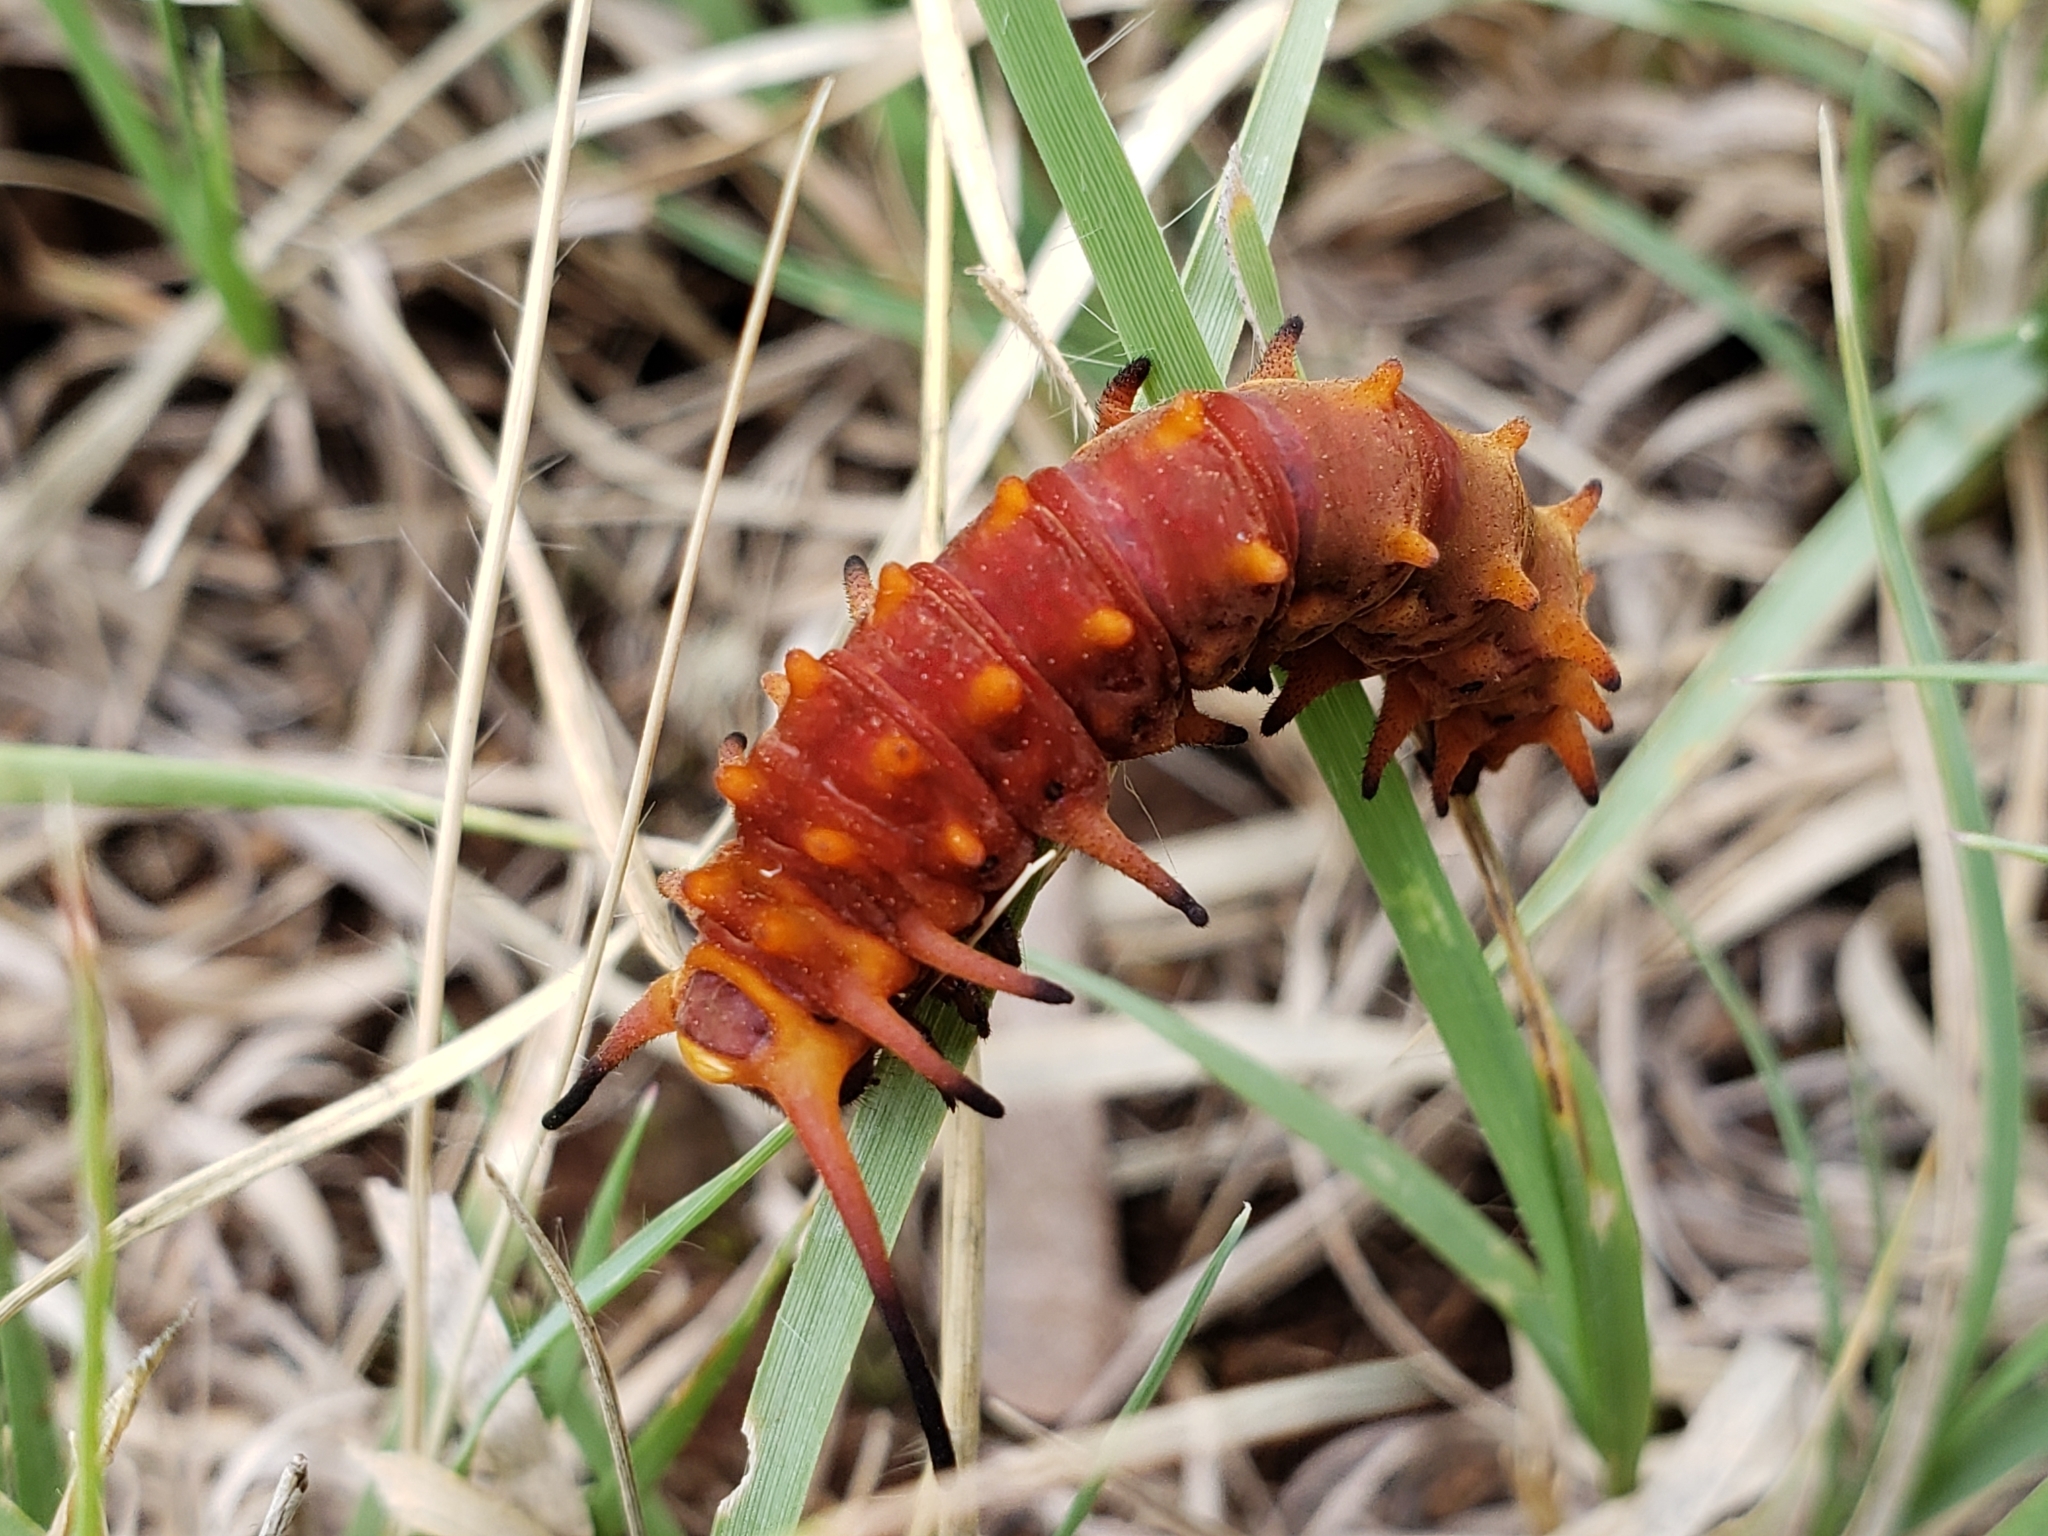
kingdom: Animalia
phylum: Arthropoda
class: Insecta
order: Lepidoptera
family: Papilionidae
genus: Battus
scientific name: Battus philenor
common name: Pipevine swallowtail
